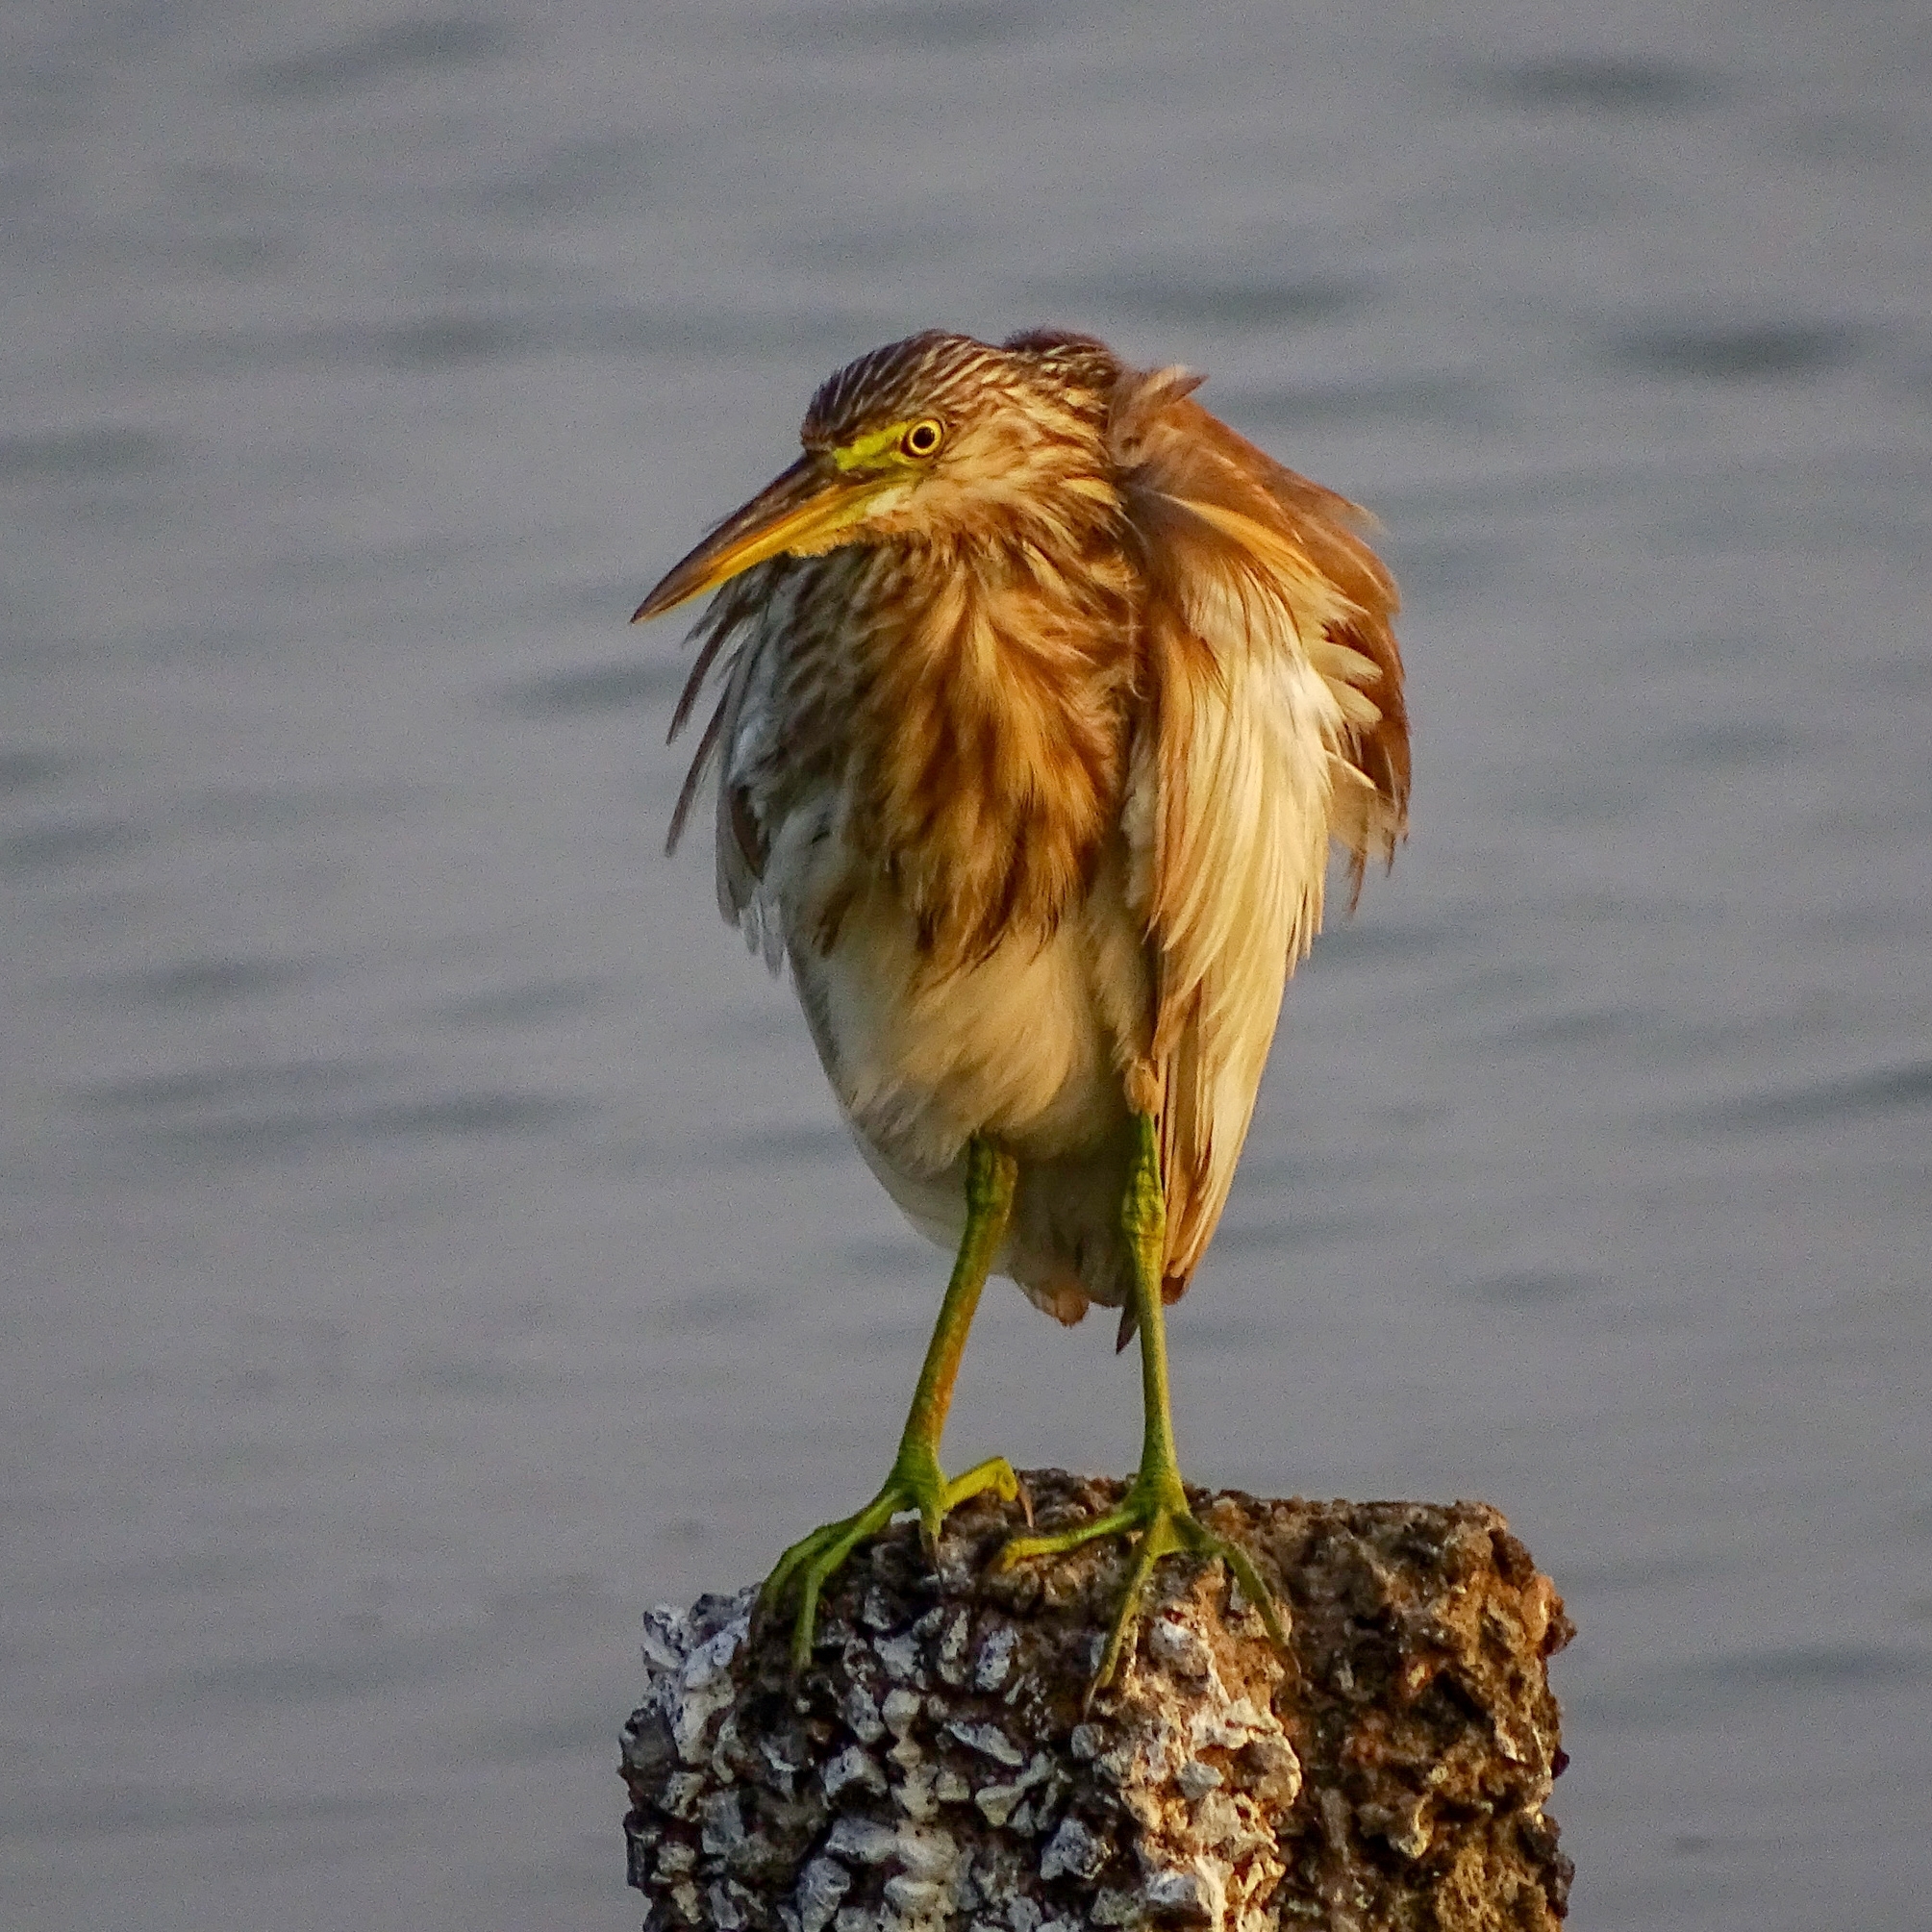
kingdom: Animalia
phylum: Chordata
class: Aves
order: Pelecaniformes
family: Ardeidae
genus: Ardeola
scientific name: Ardeola grayii
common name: Indian pond heron
